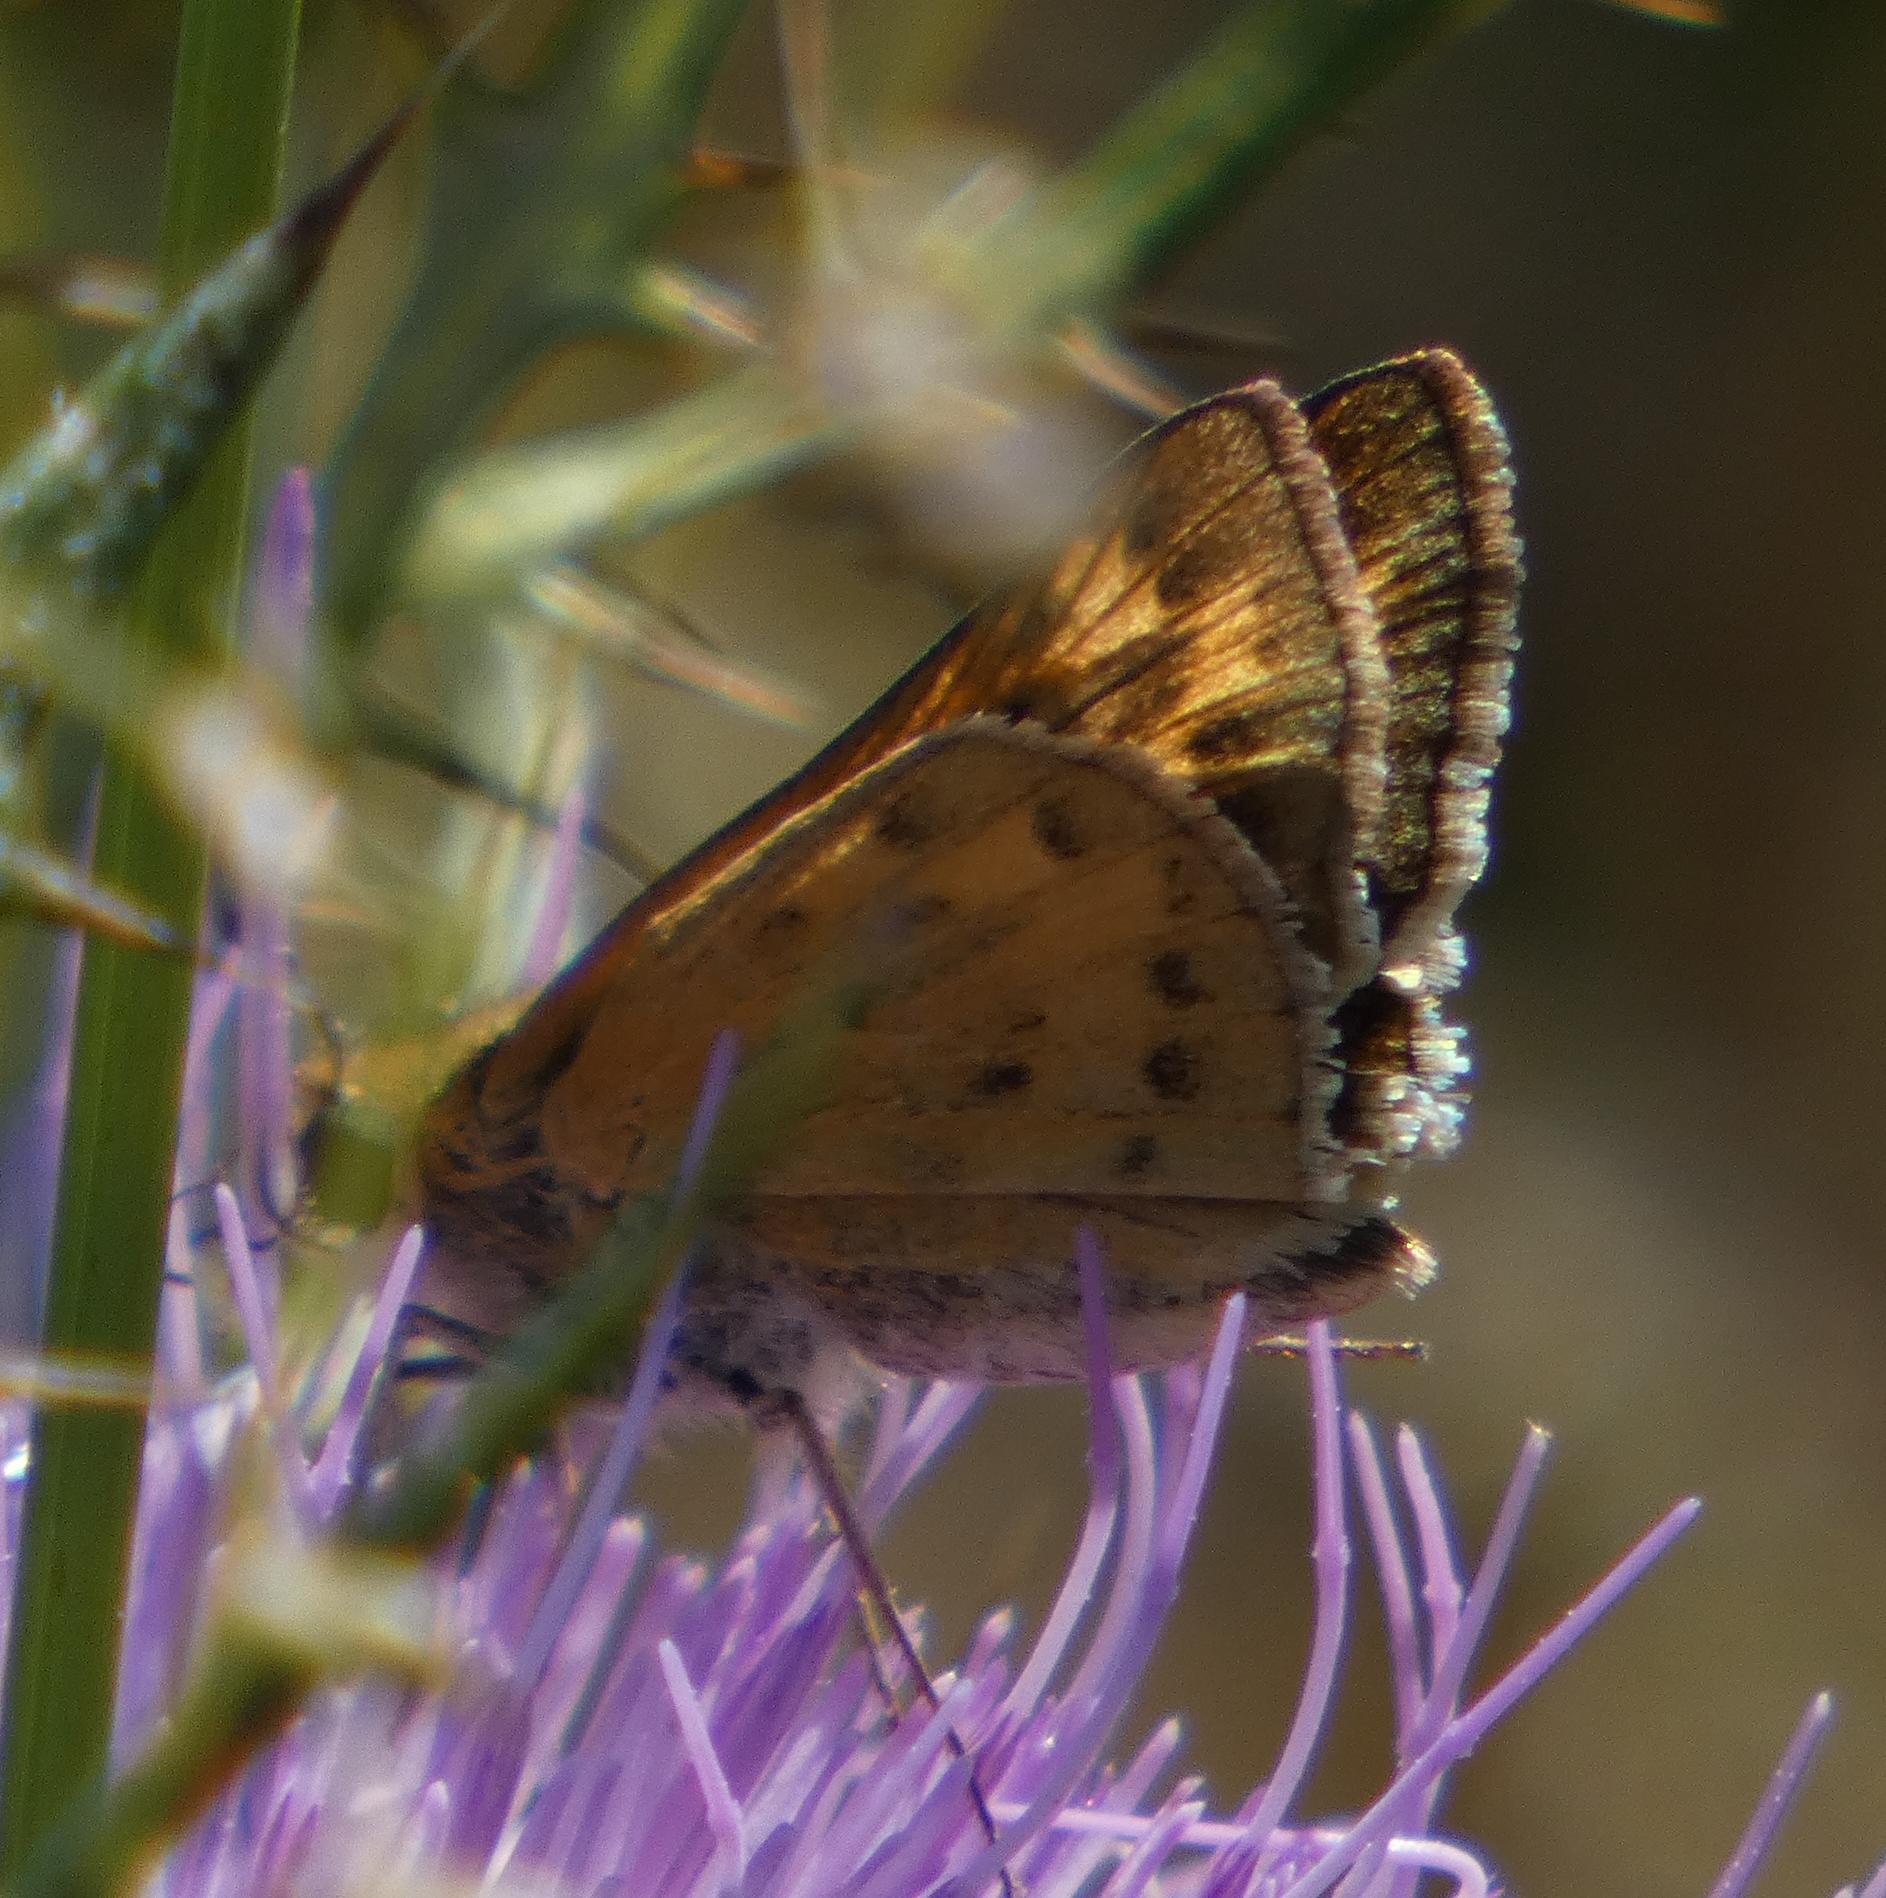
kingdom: Animalia
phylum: Arthropoda
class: Insecta
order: Lepidoptera
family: Hesperiidae
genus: Hylephila
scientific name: Hylephila phyleus
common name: Fiery skipper
